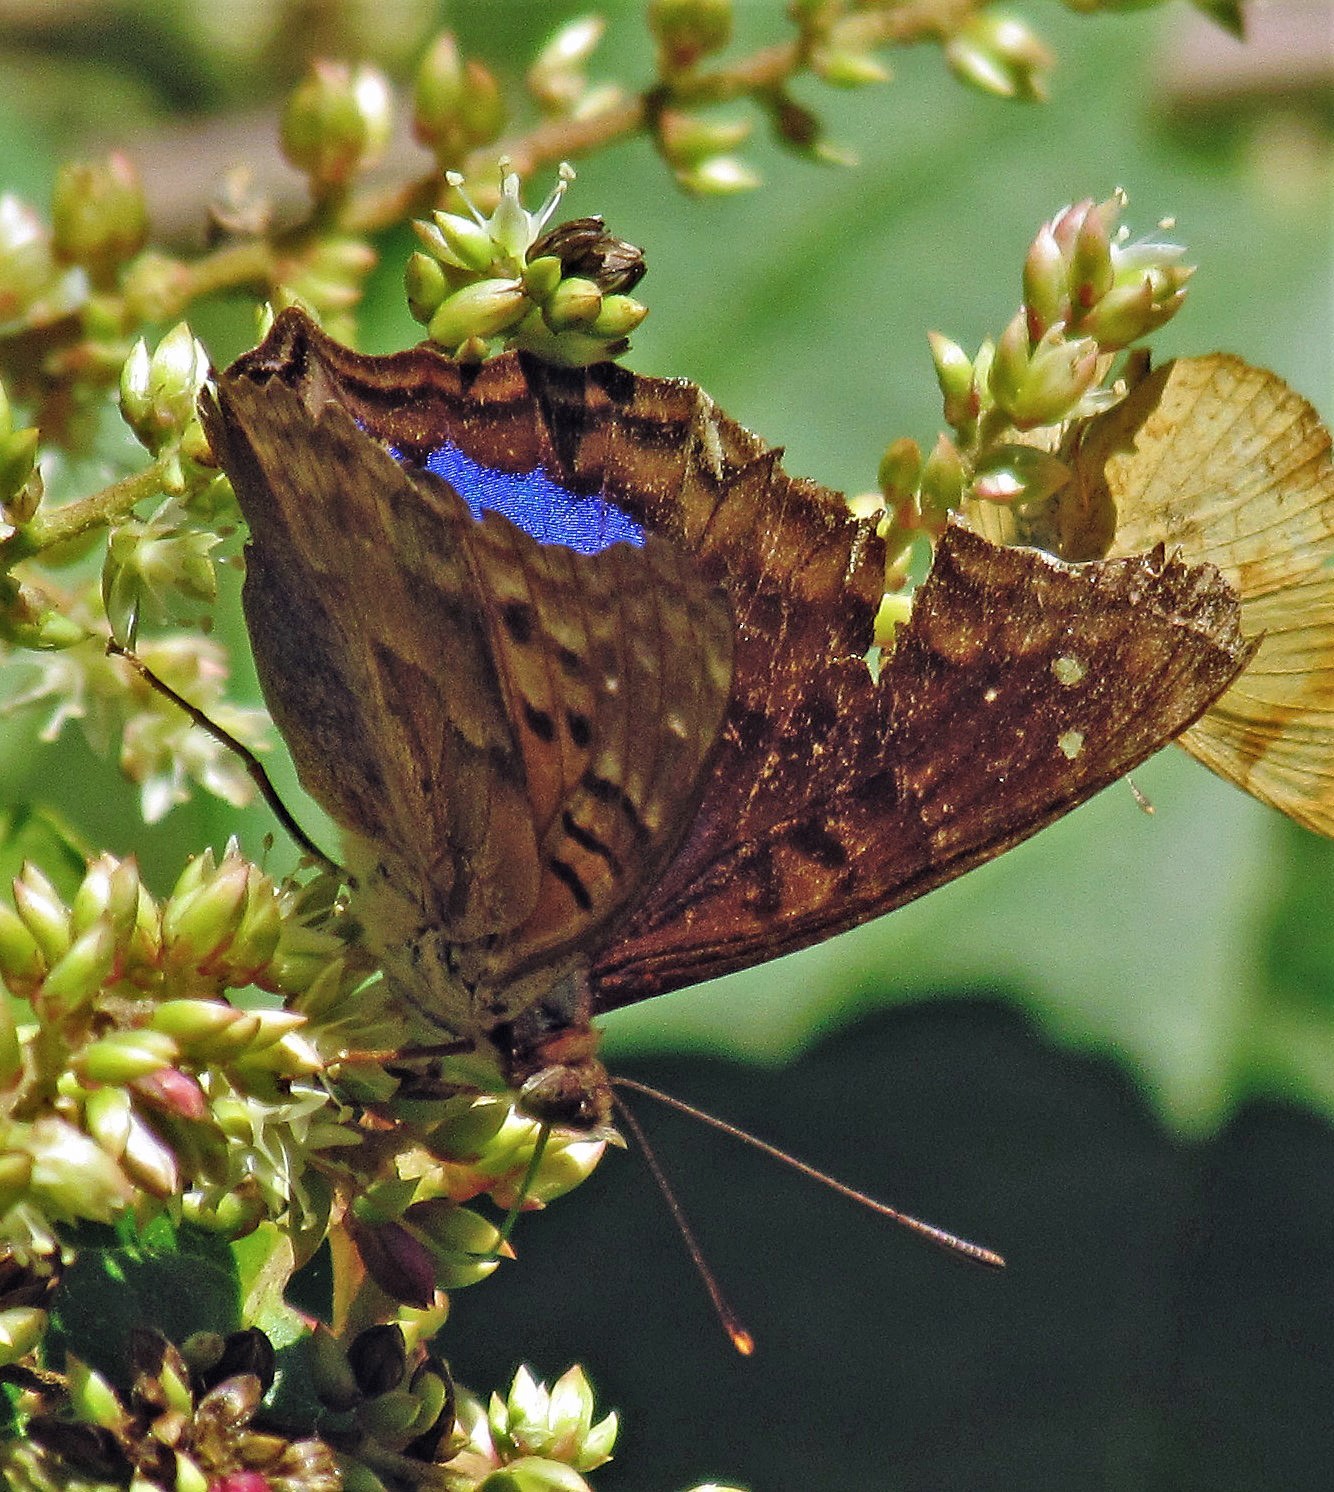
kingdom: Animalia
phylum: Arthropoda
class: Insecta
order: Lepidoptera
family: Nymphalidae
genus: Doxocopa
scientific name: Doxocopa cyane
